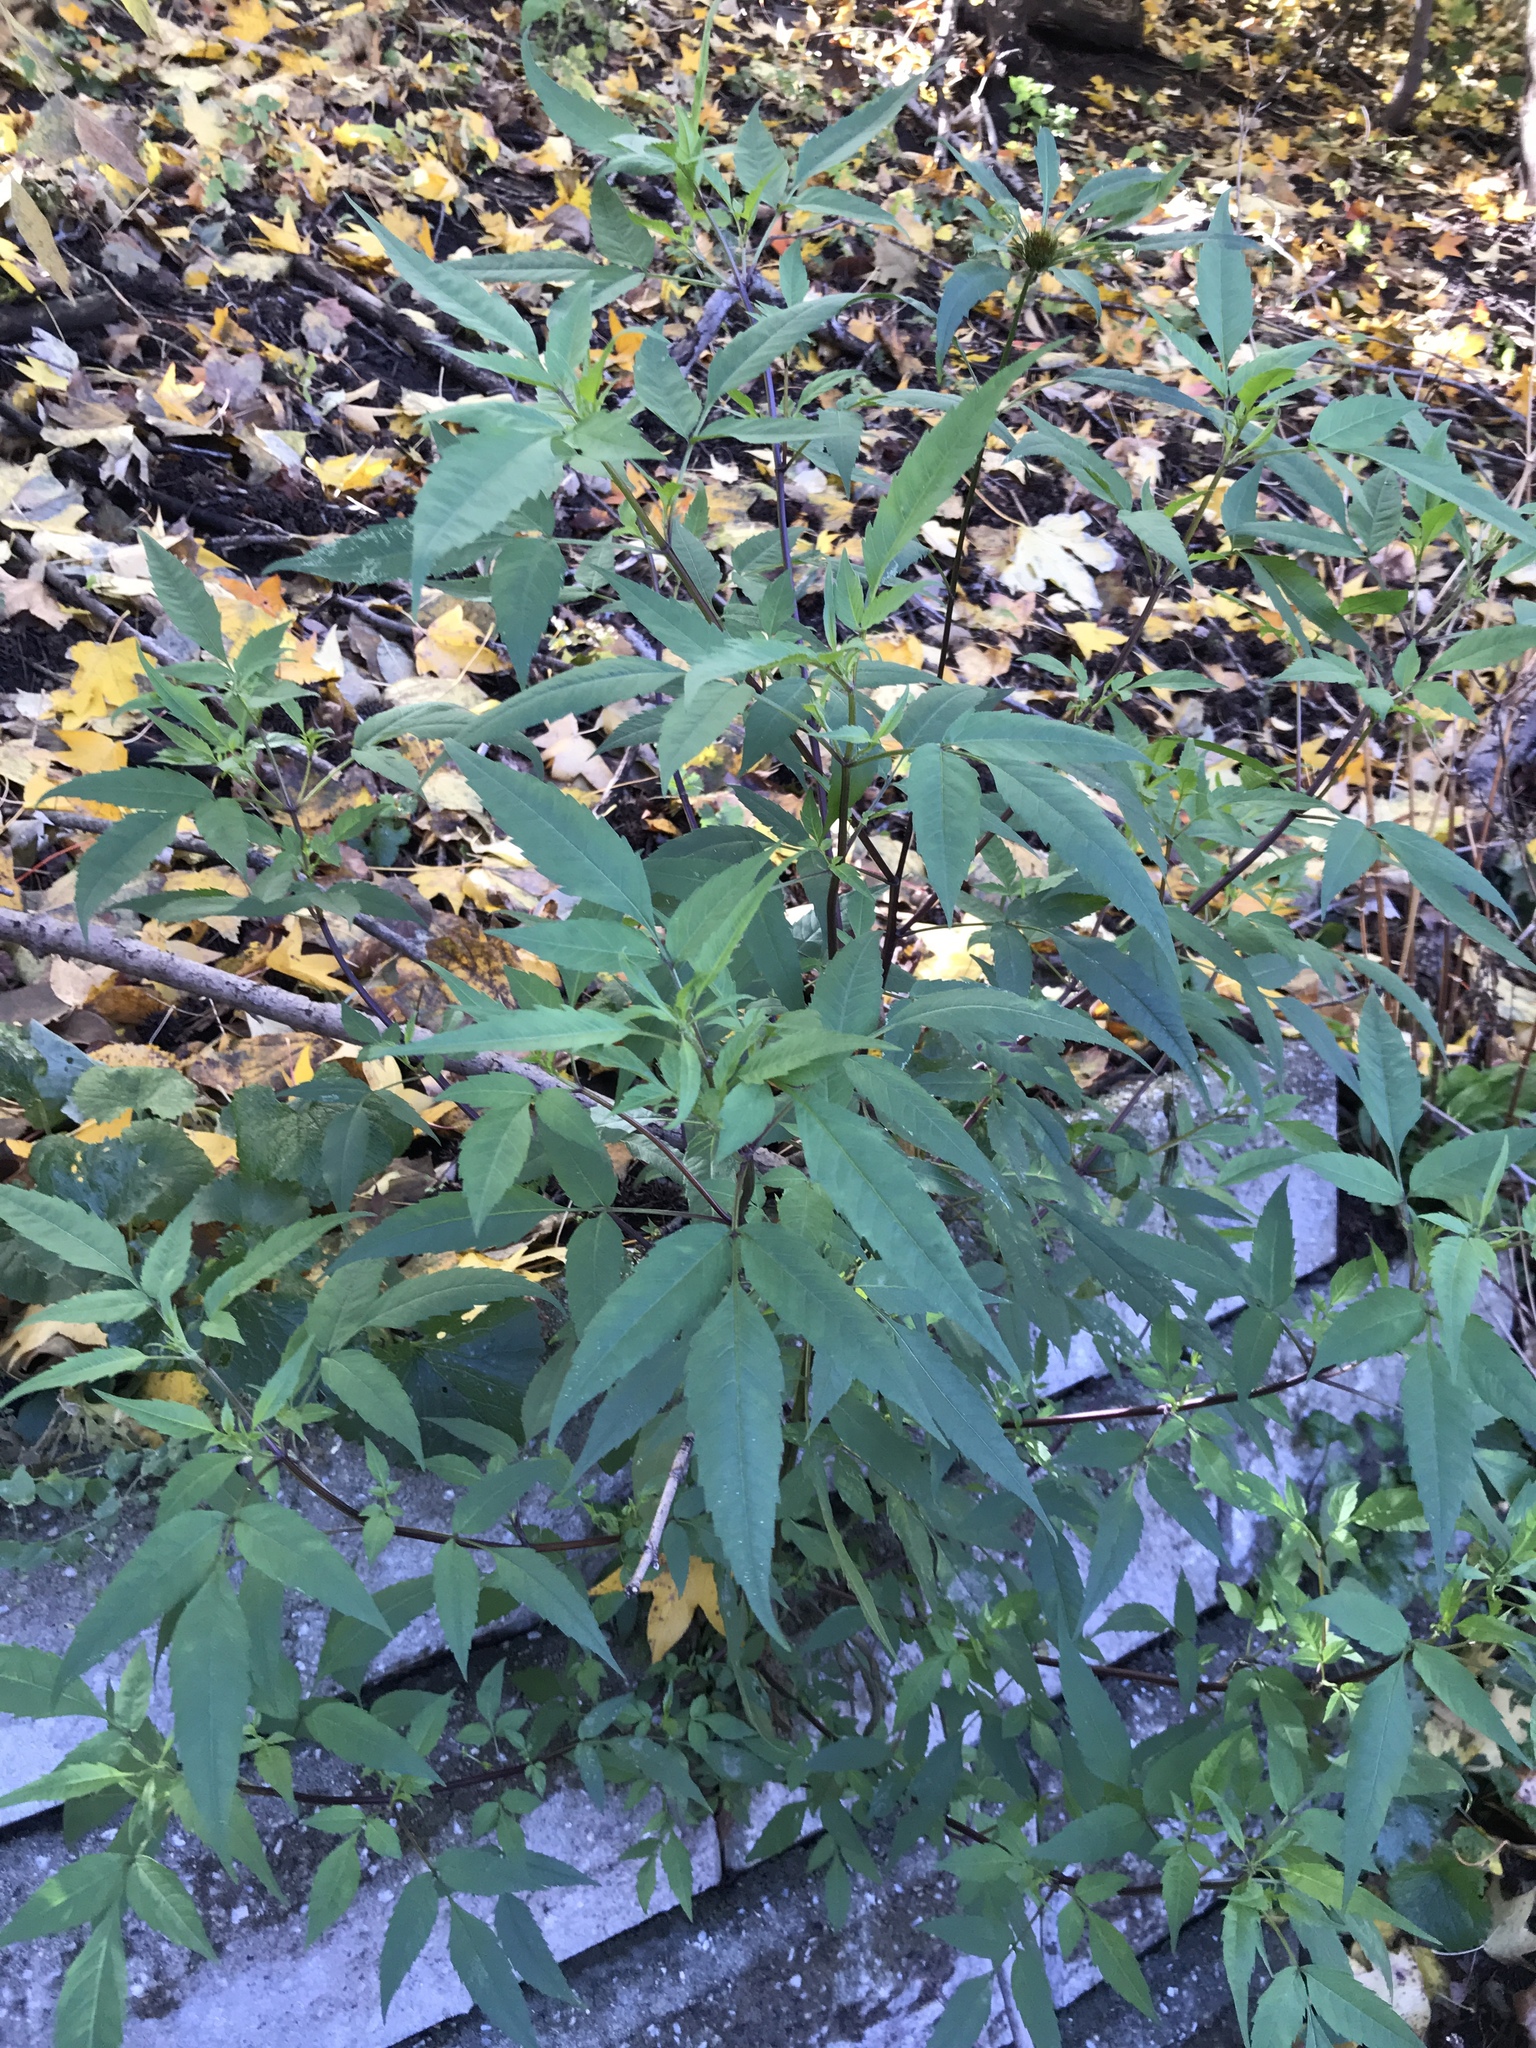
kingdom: Plantae
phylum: Tracheophyta
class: Magnoliopsida
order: Asterales
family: Asteraceae
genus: Bidens
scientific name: Bidens frondosa
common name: Beggarticks
